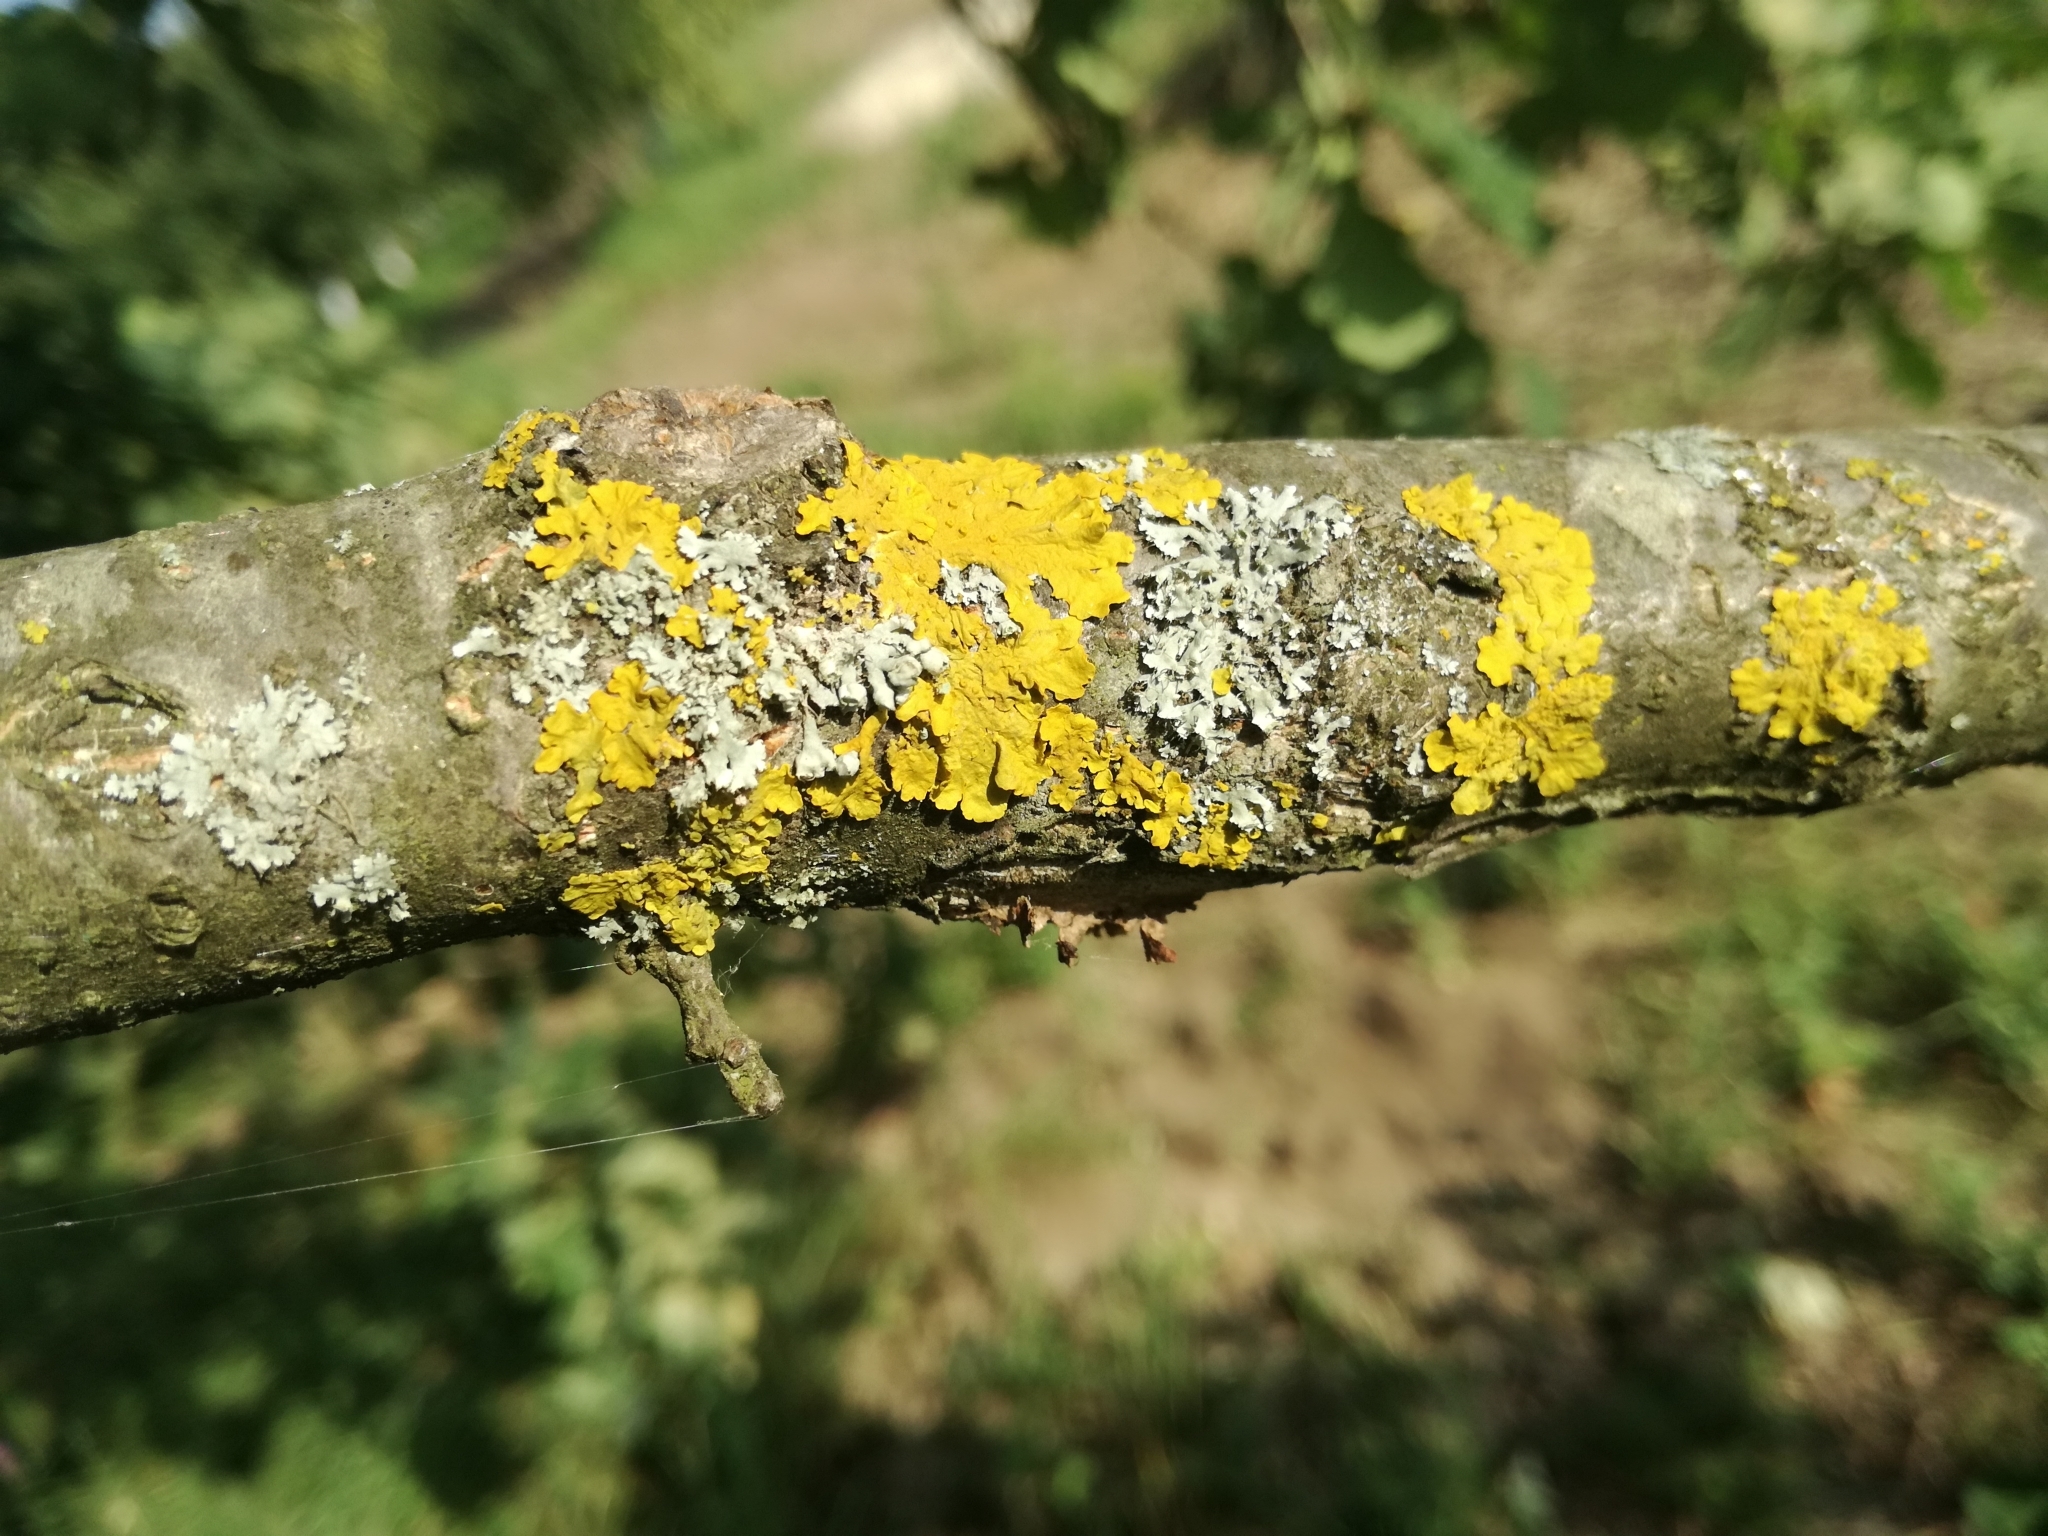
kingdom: Fungi
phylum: Ascomycota
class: Lecanoromycetes
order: Teloschistales
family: Teloschistaceae
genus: Xanthoria
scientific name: Xanthoria parietina
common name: Common orange lichen
